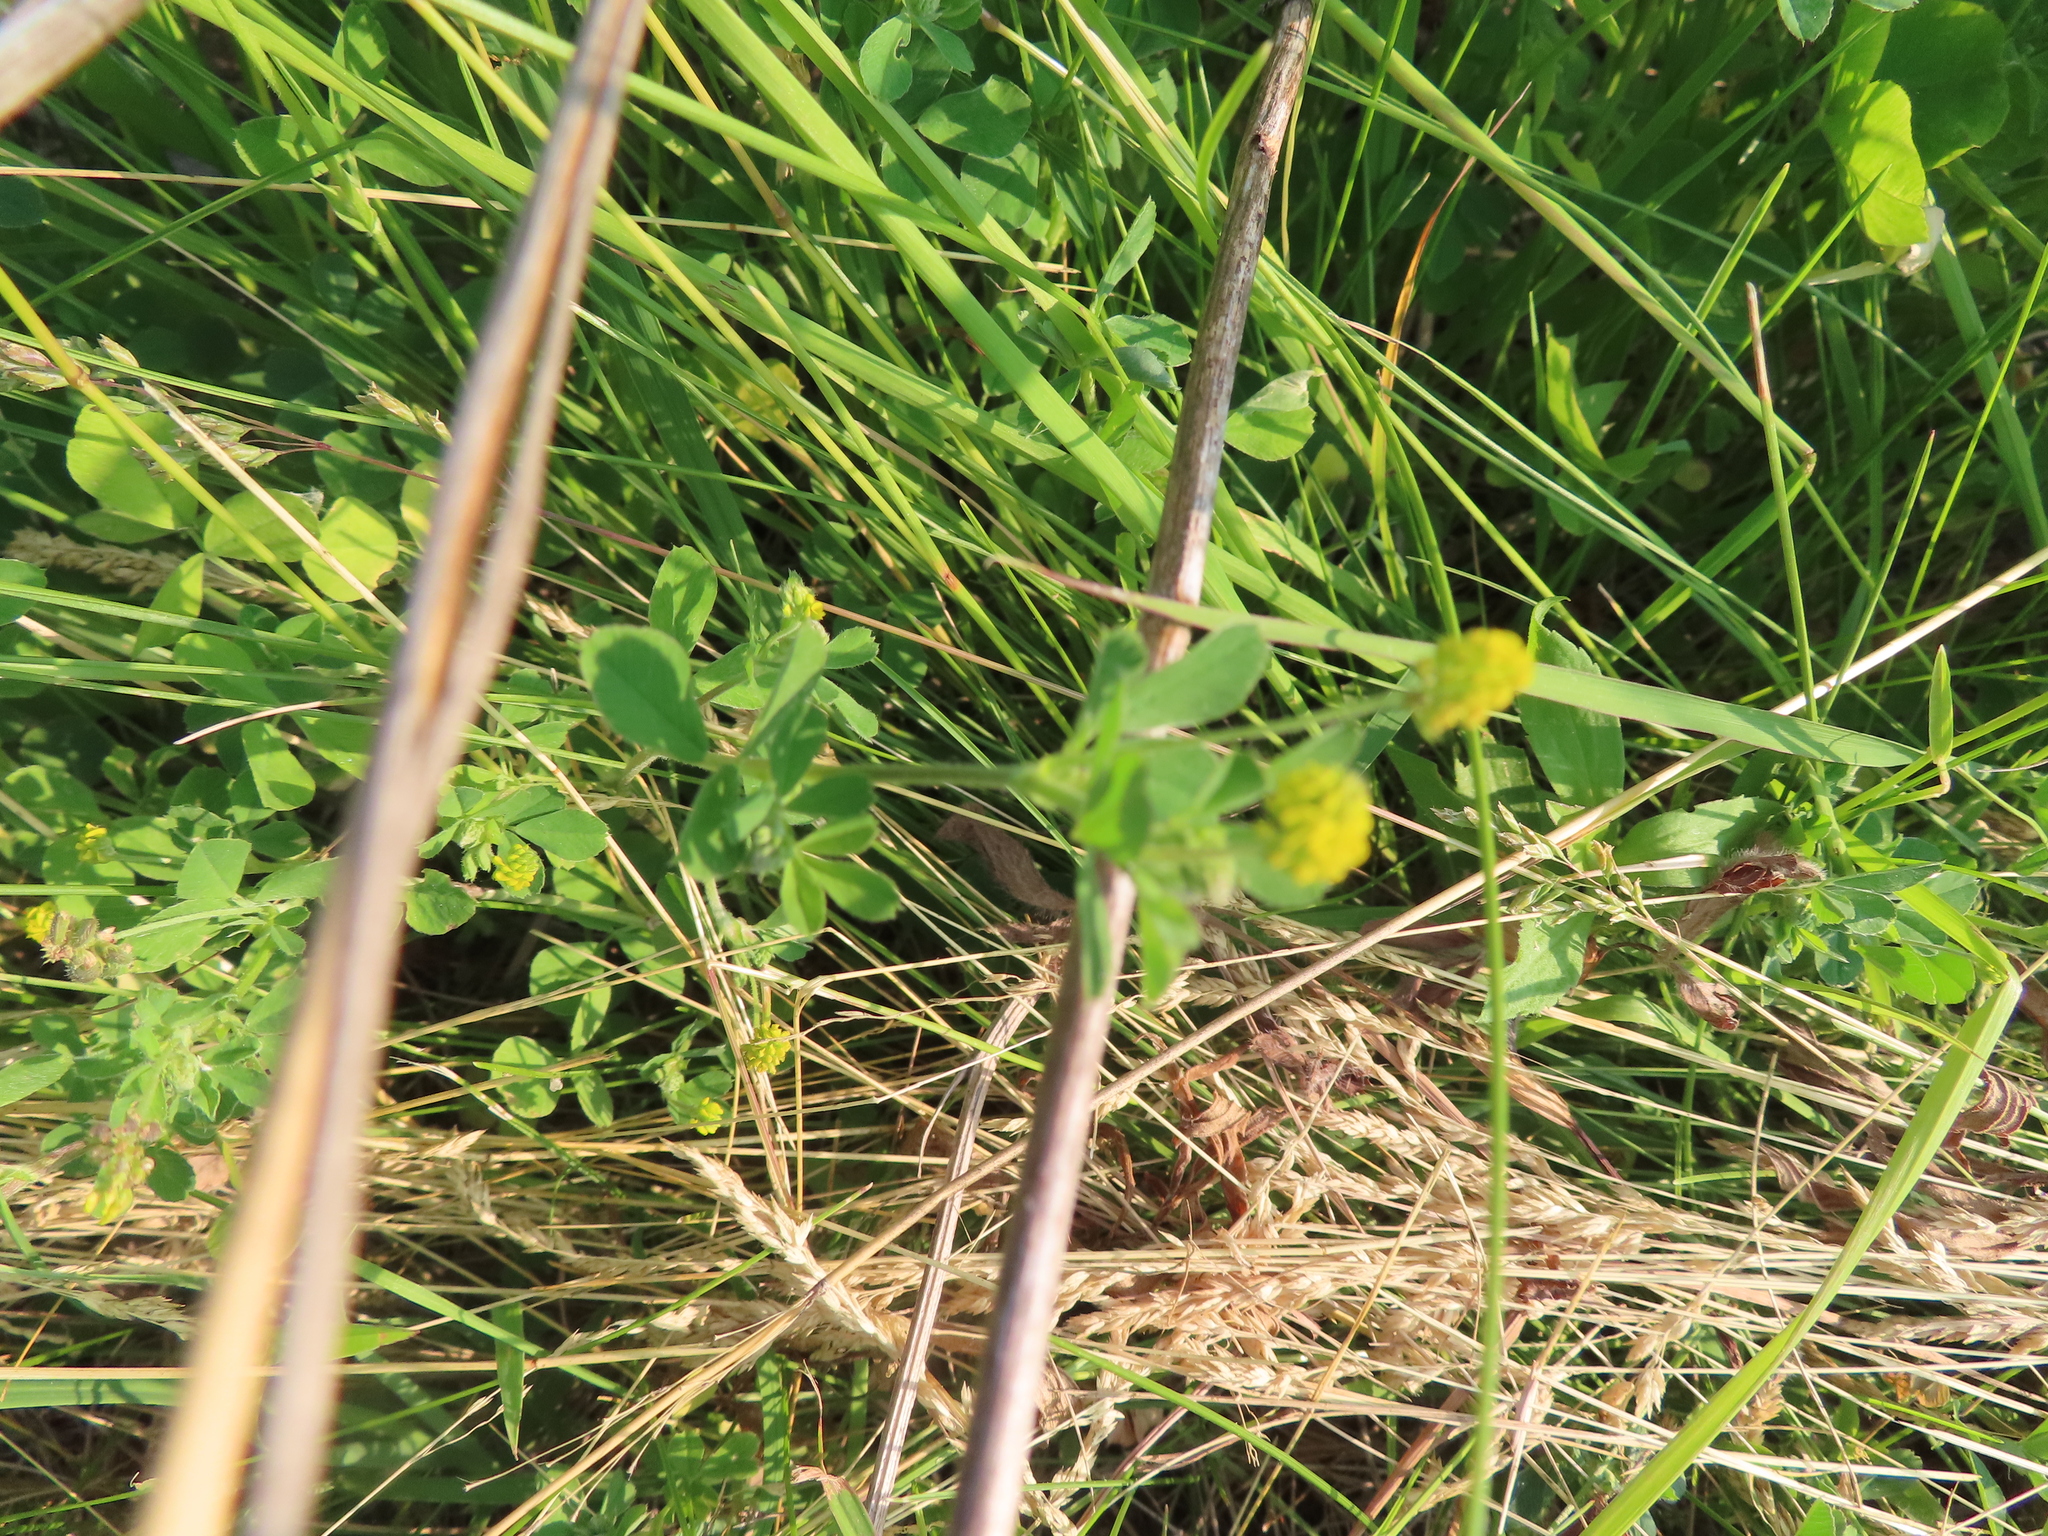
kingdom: Plantae
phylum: Tracheophyta
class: Magnoliopsida
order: Fabales
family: Fabaceae
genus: Medicago
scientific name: Medicago lupulina
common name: Black medick
